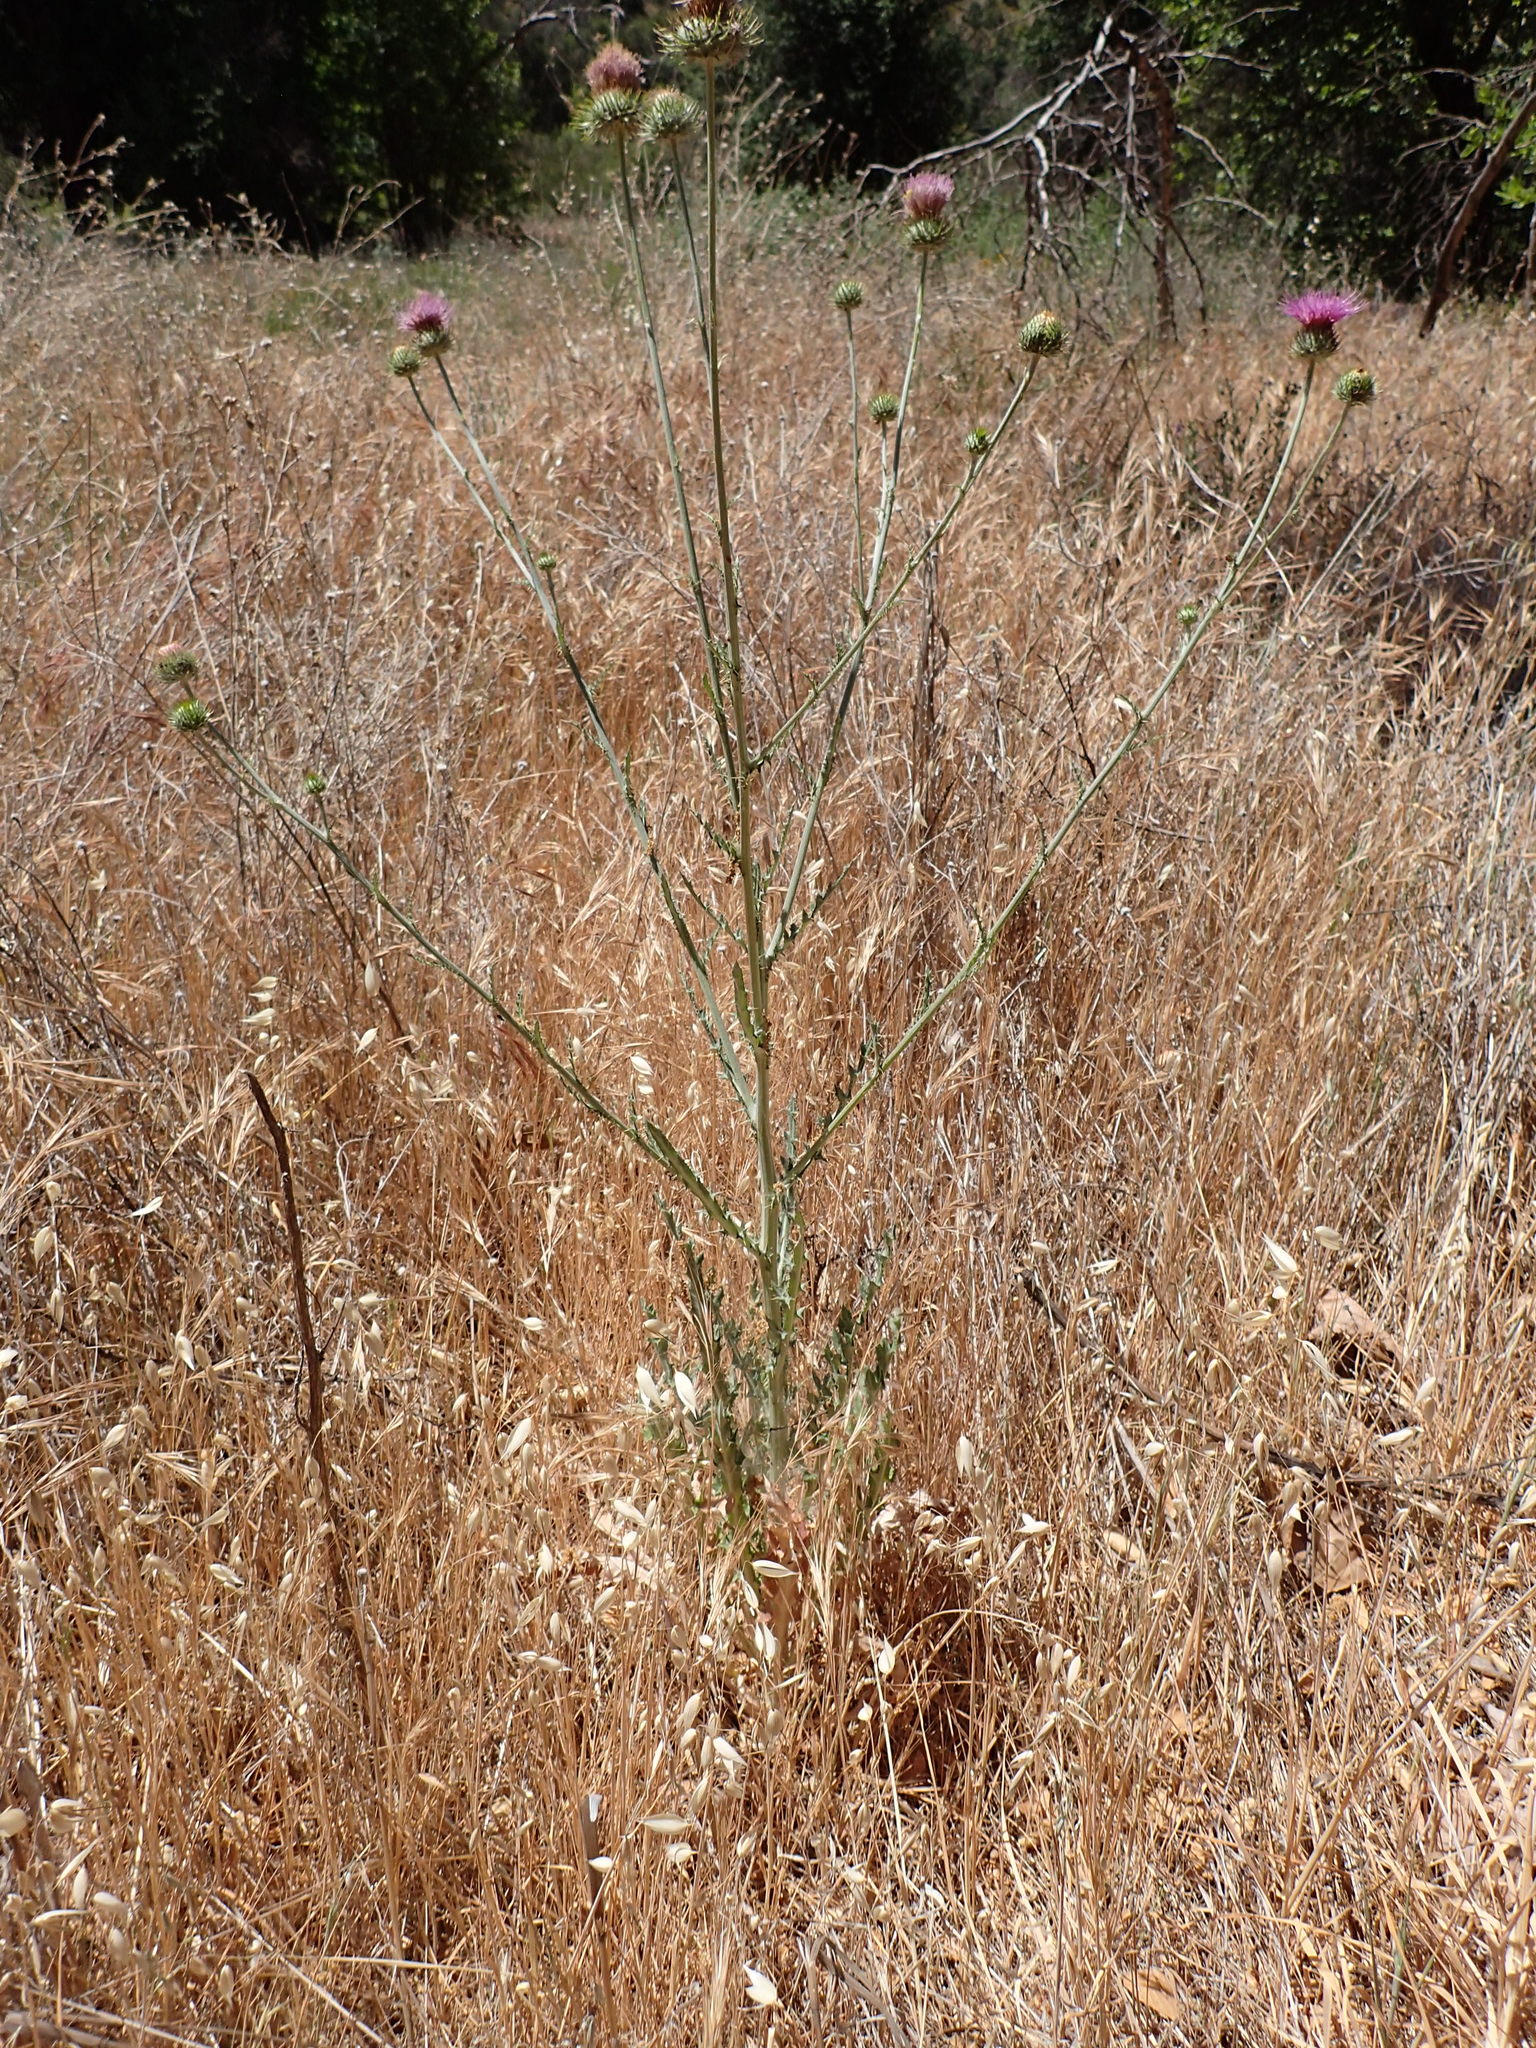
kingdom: Plantae
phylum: Tracheophyta
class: Magnoliopsida
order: Asterales
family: Asteraceae
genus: Cirsium
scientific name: Cirsium occidentale
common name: Western thistle
